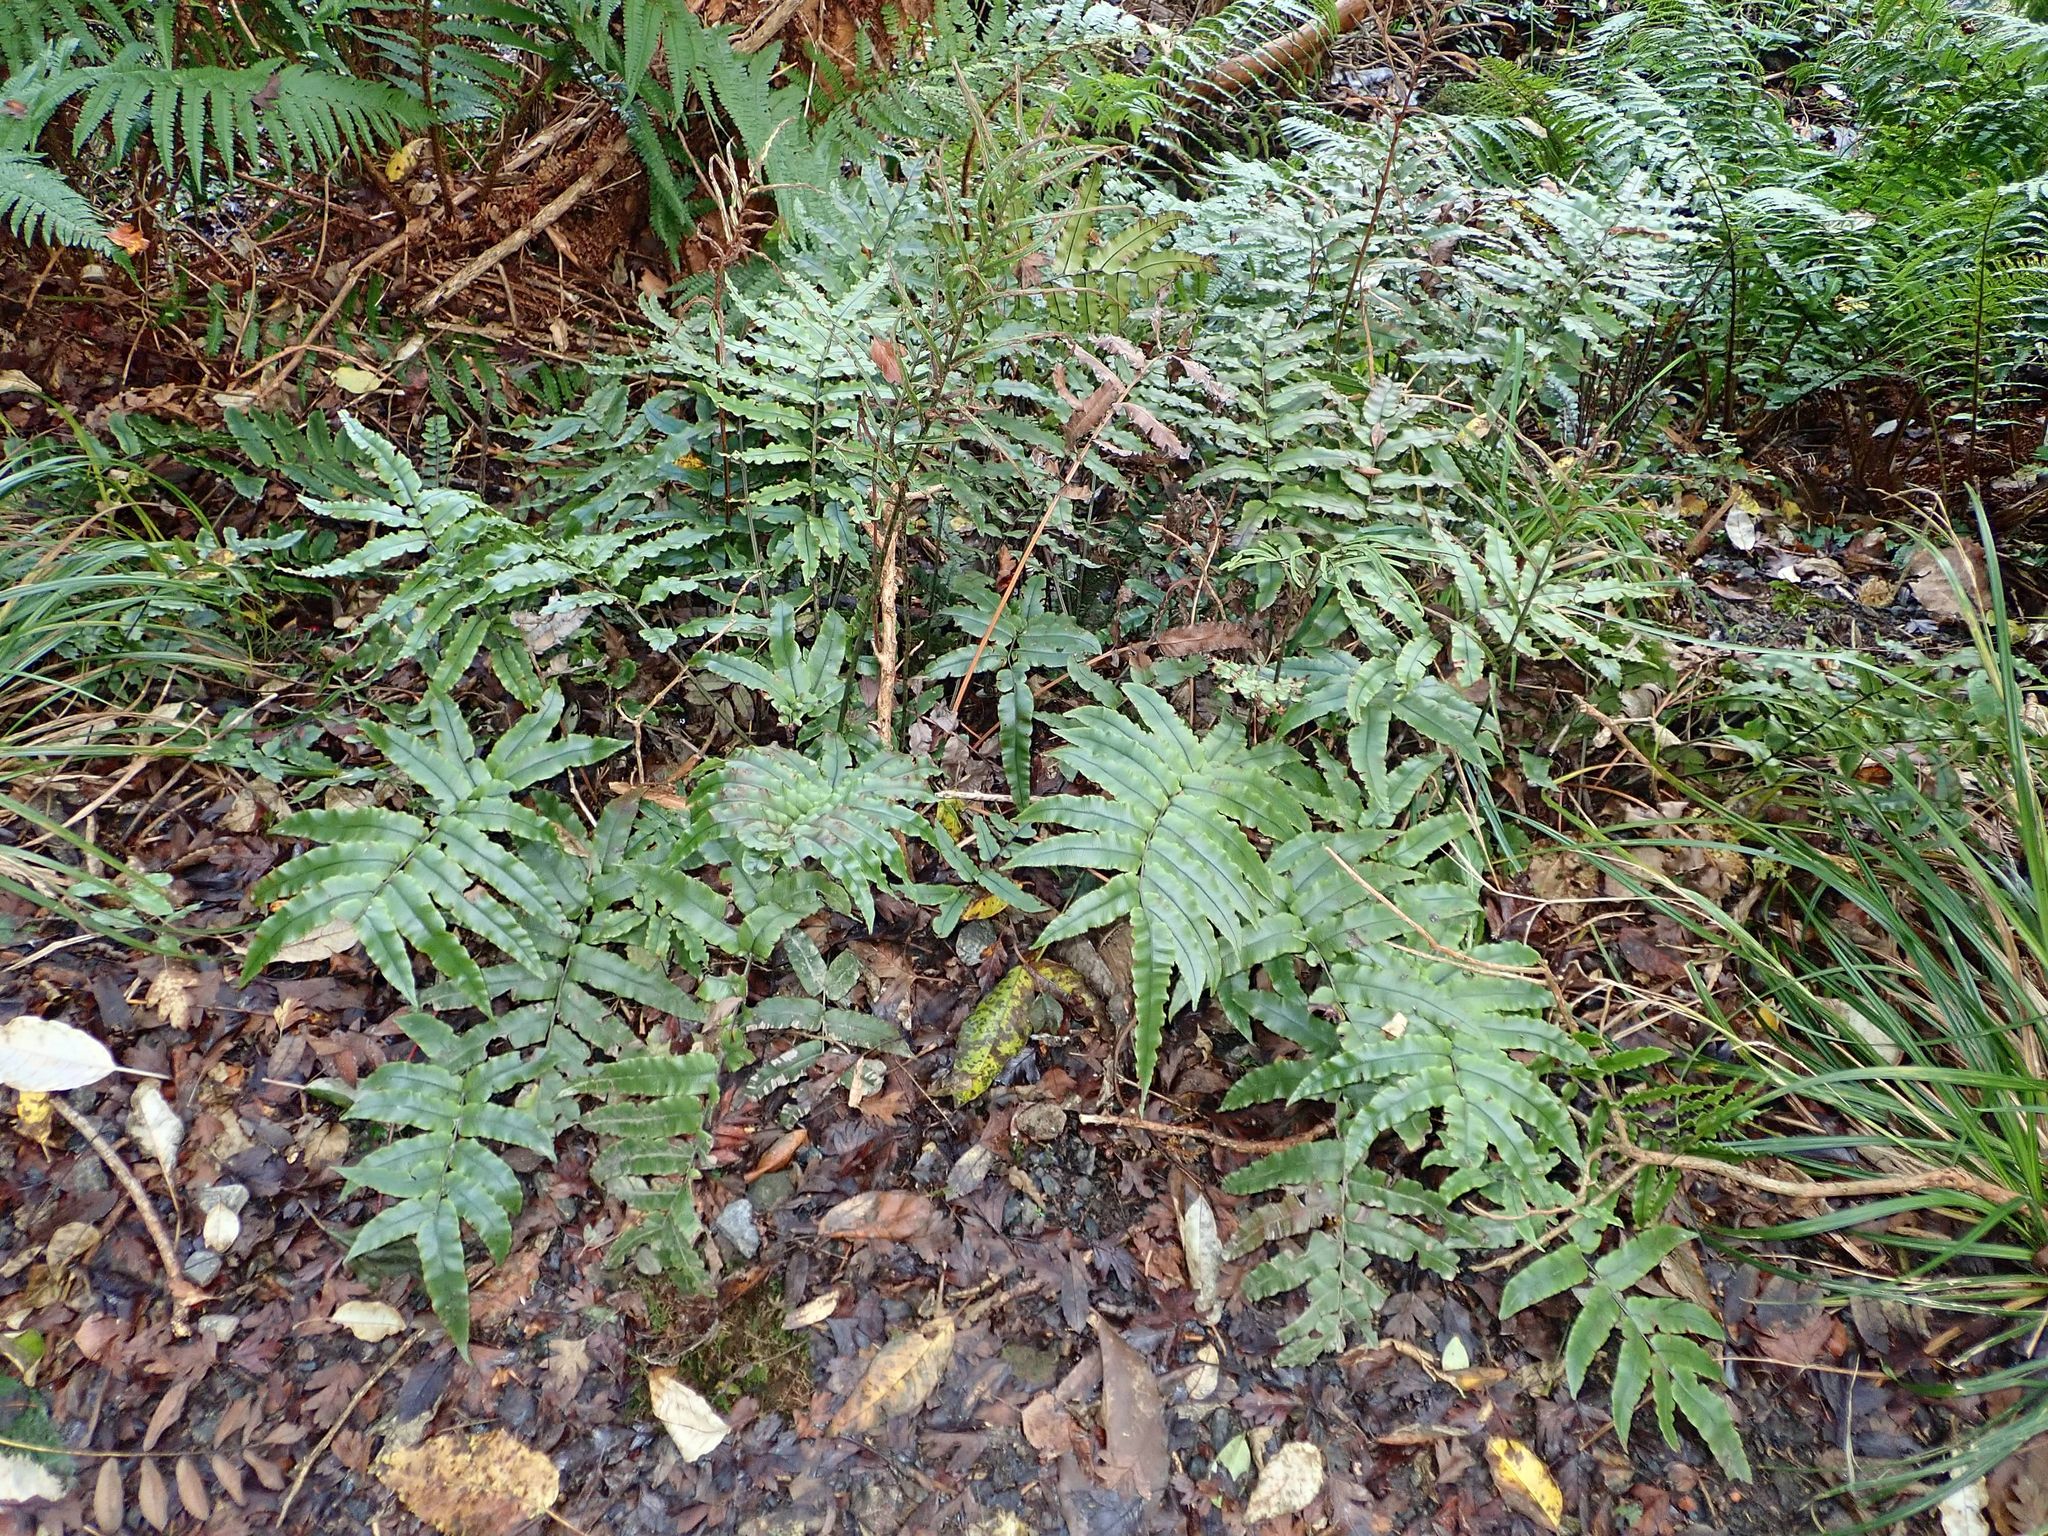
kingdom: Plantae
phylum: Tracheophyta
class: Polypodiopsida
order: Polypodiales
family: Blechnaceae
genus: Parablechnum
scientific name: Parablechnum procerum
